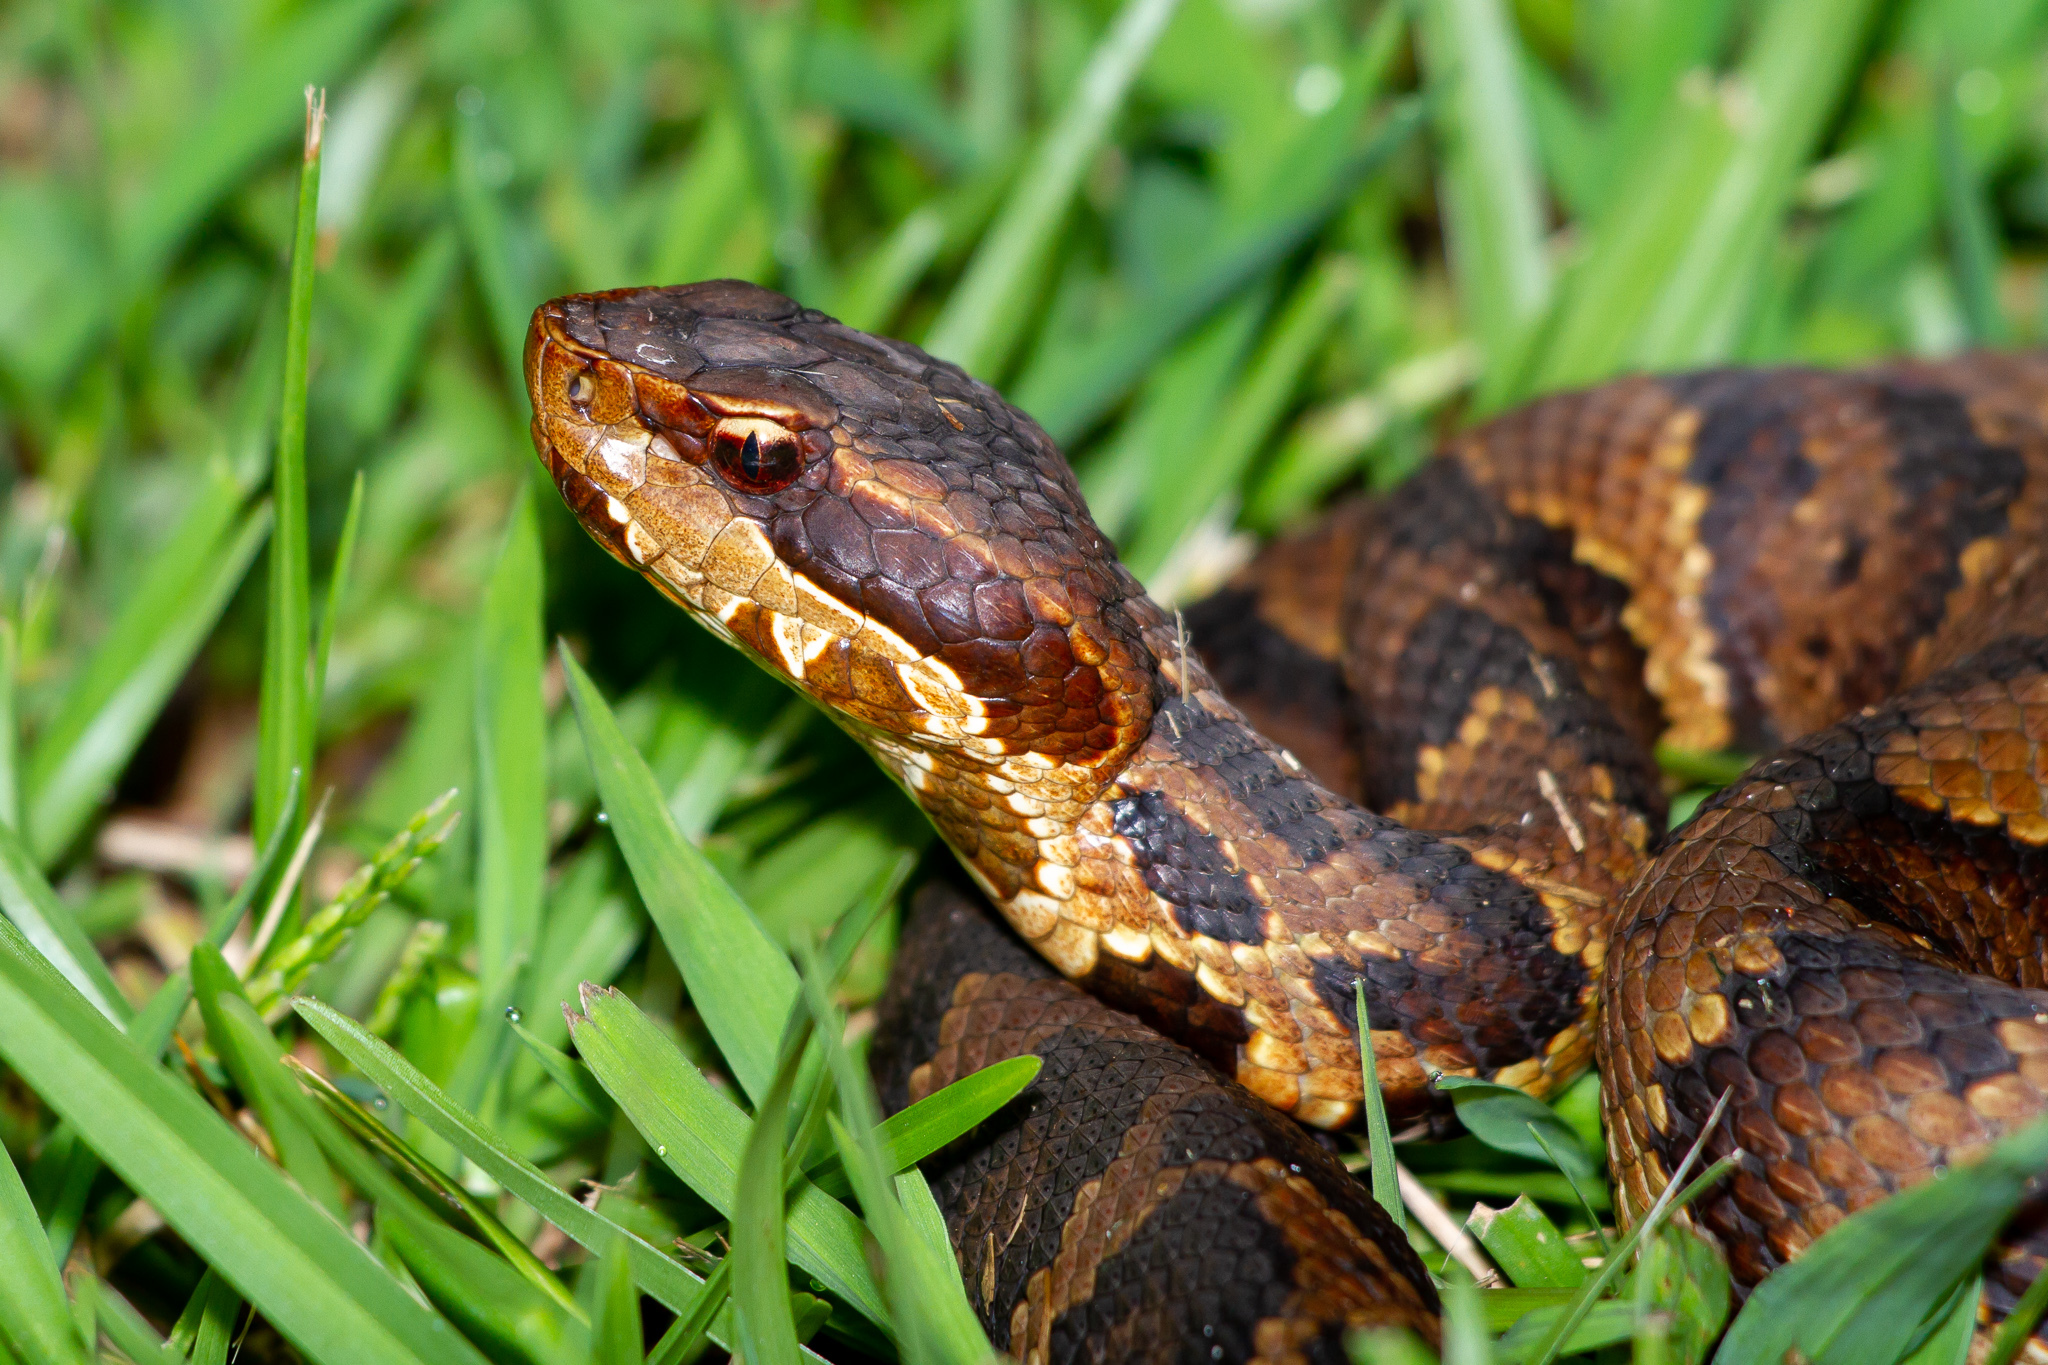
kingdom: Animalia
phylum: Chordata
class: Squamata
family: Viperidae
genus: Agkistrodon
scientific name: Agkistrodon piscivorus
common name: Cottonmouth
